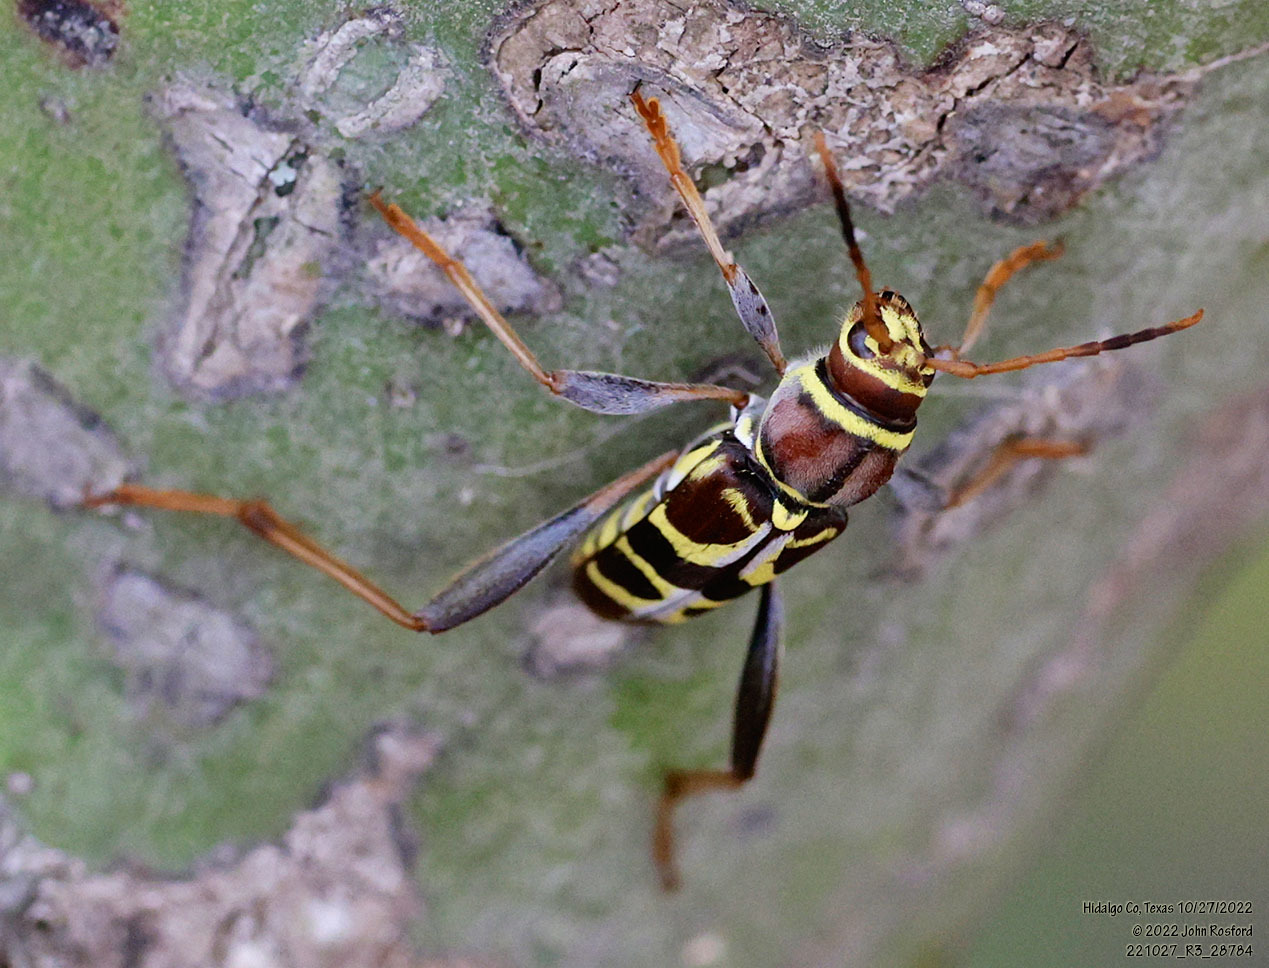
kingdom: Animalia
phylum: Arthropoda
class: Insecta
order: Coleoptera
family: Cerambycidae
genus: Neoclytus
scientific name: Neoclytus mucronatus
